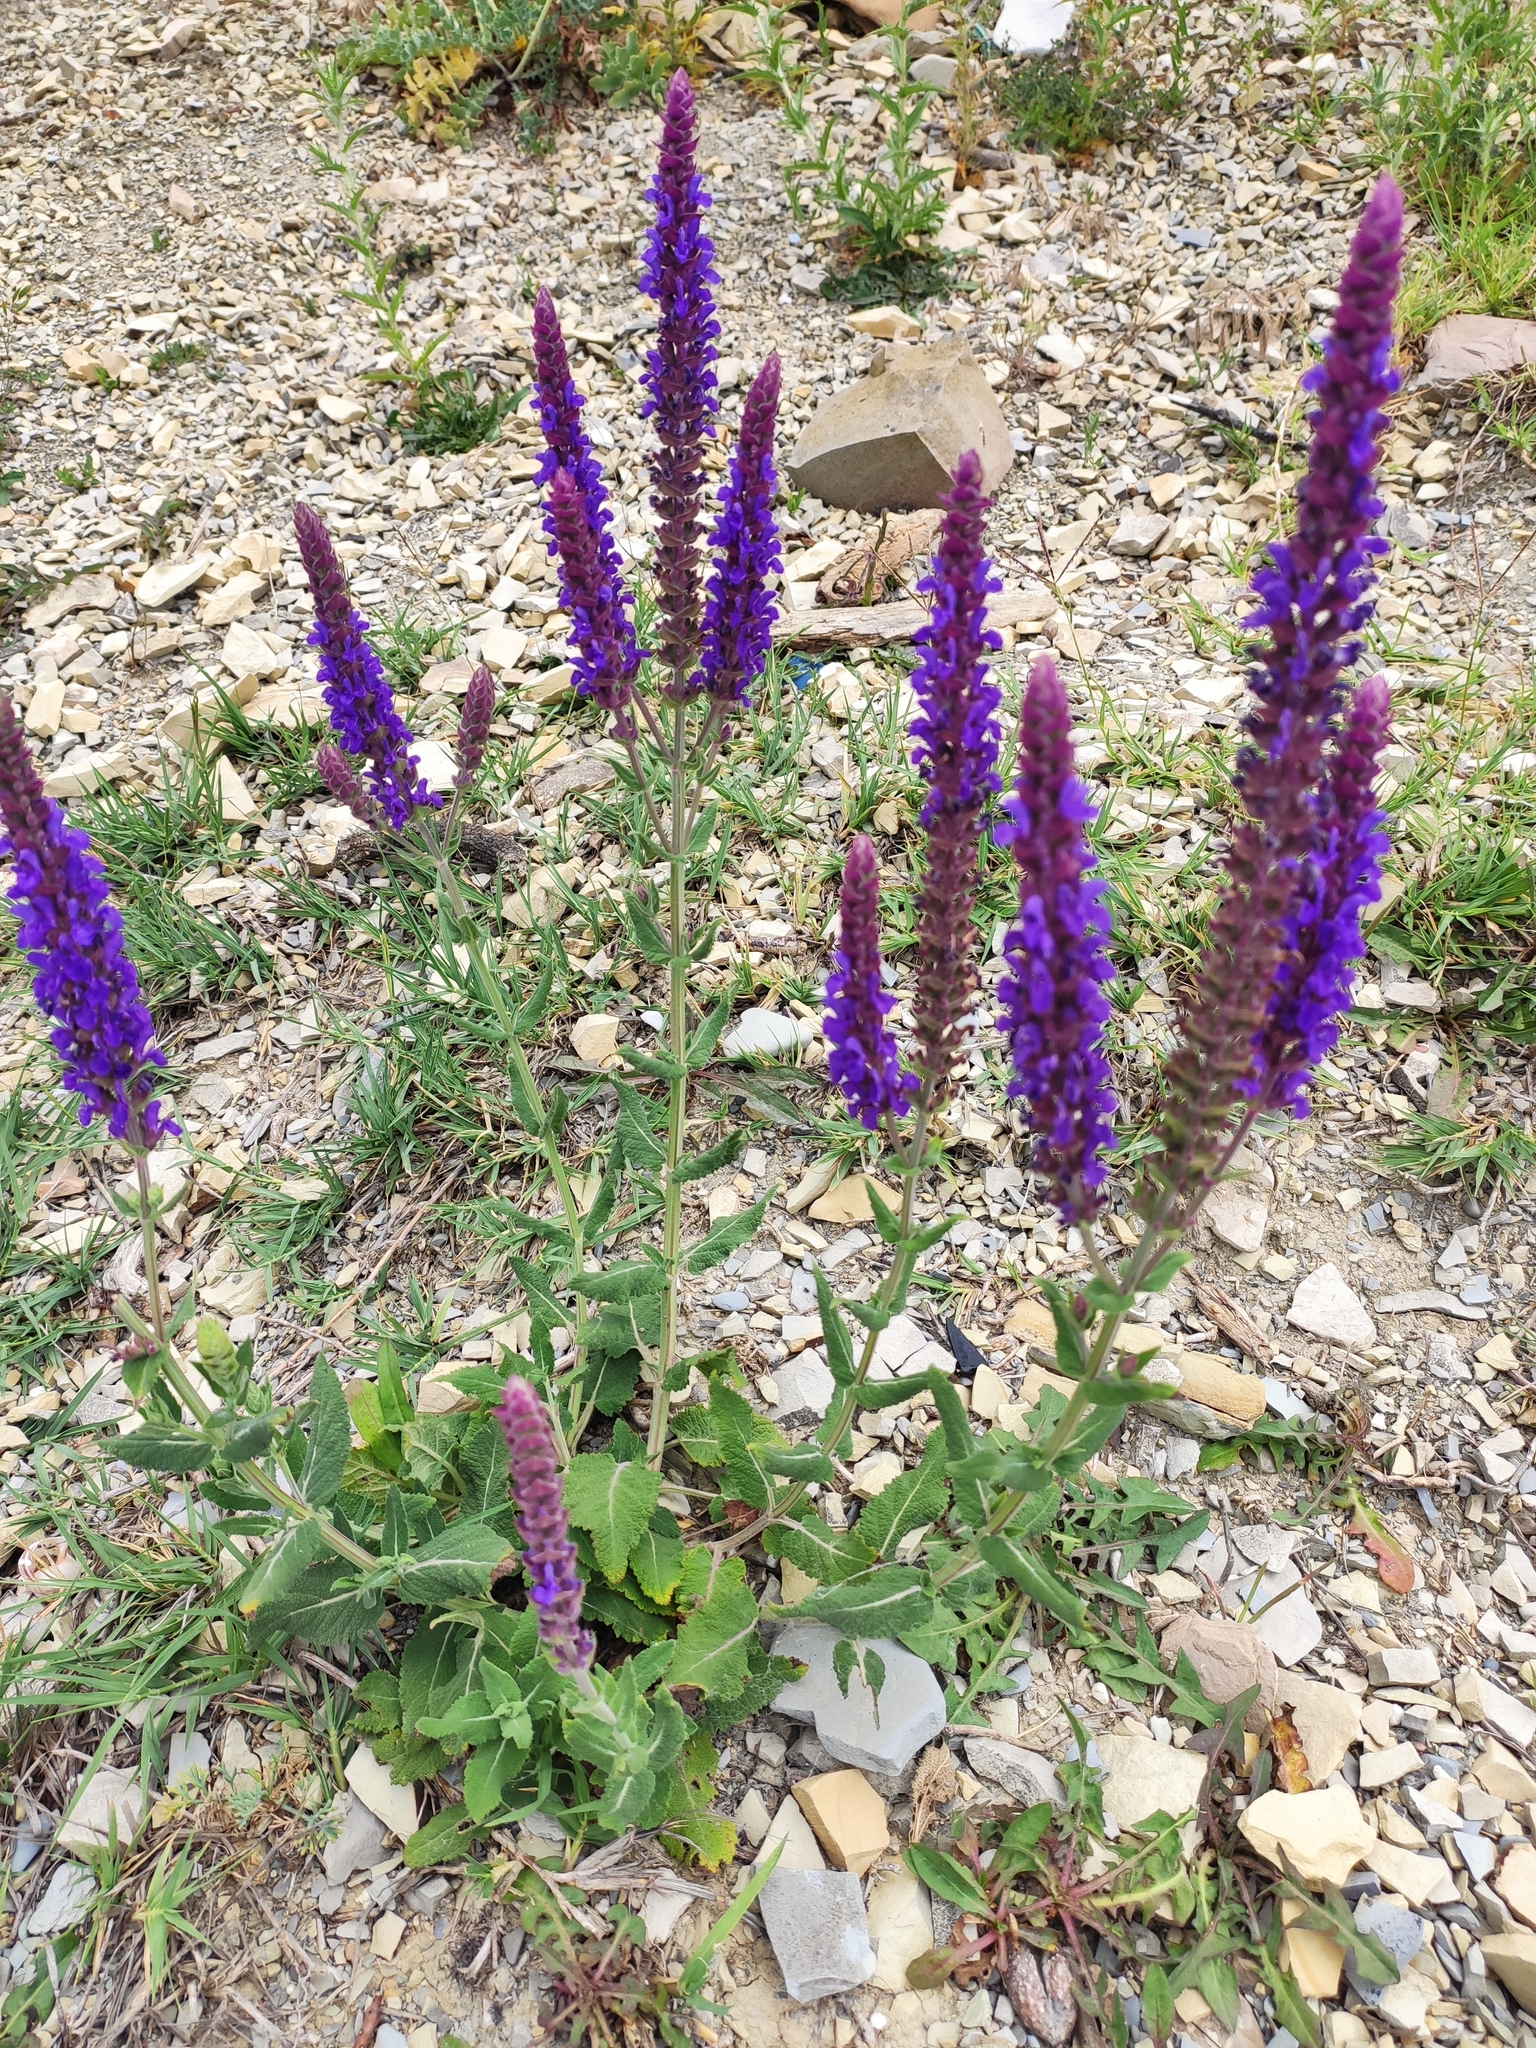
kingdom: Plantae
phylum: Tracheophyta
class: Magnoliopsida
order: Lamiales
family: Lamiaceae
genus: Salvia
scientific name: Salvia nemorosa
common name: Balkan clary
